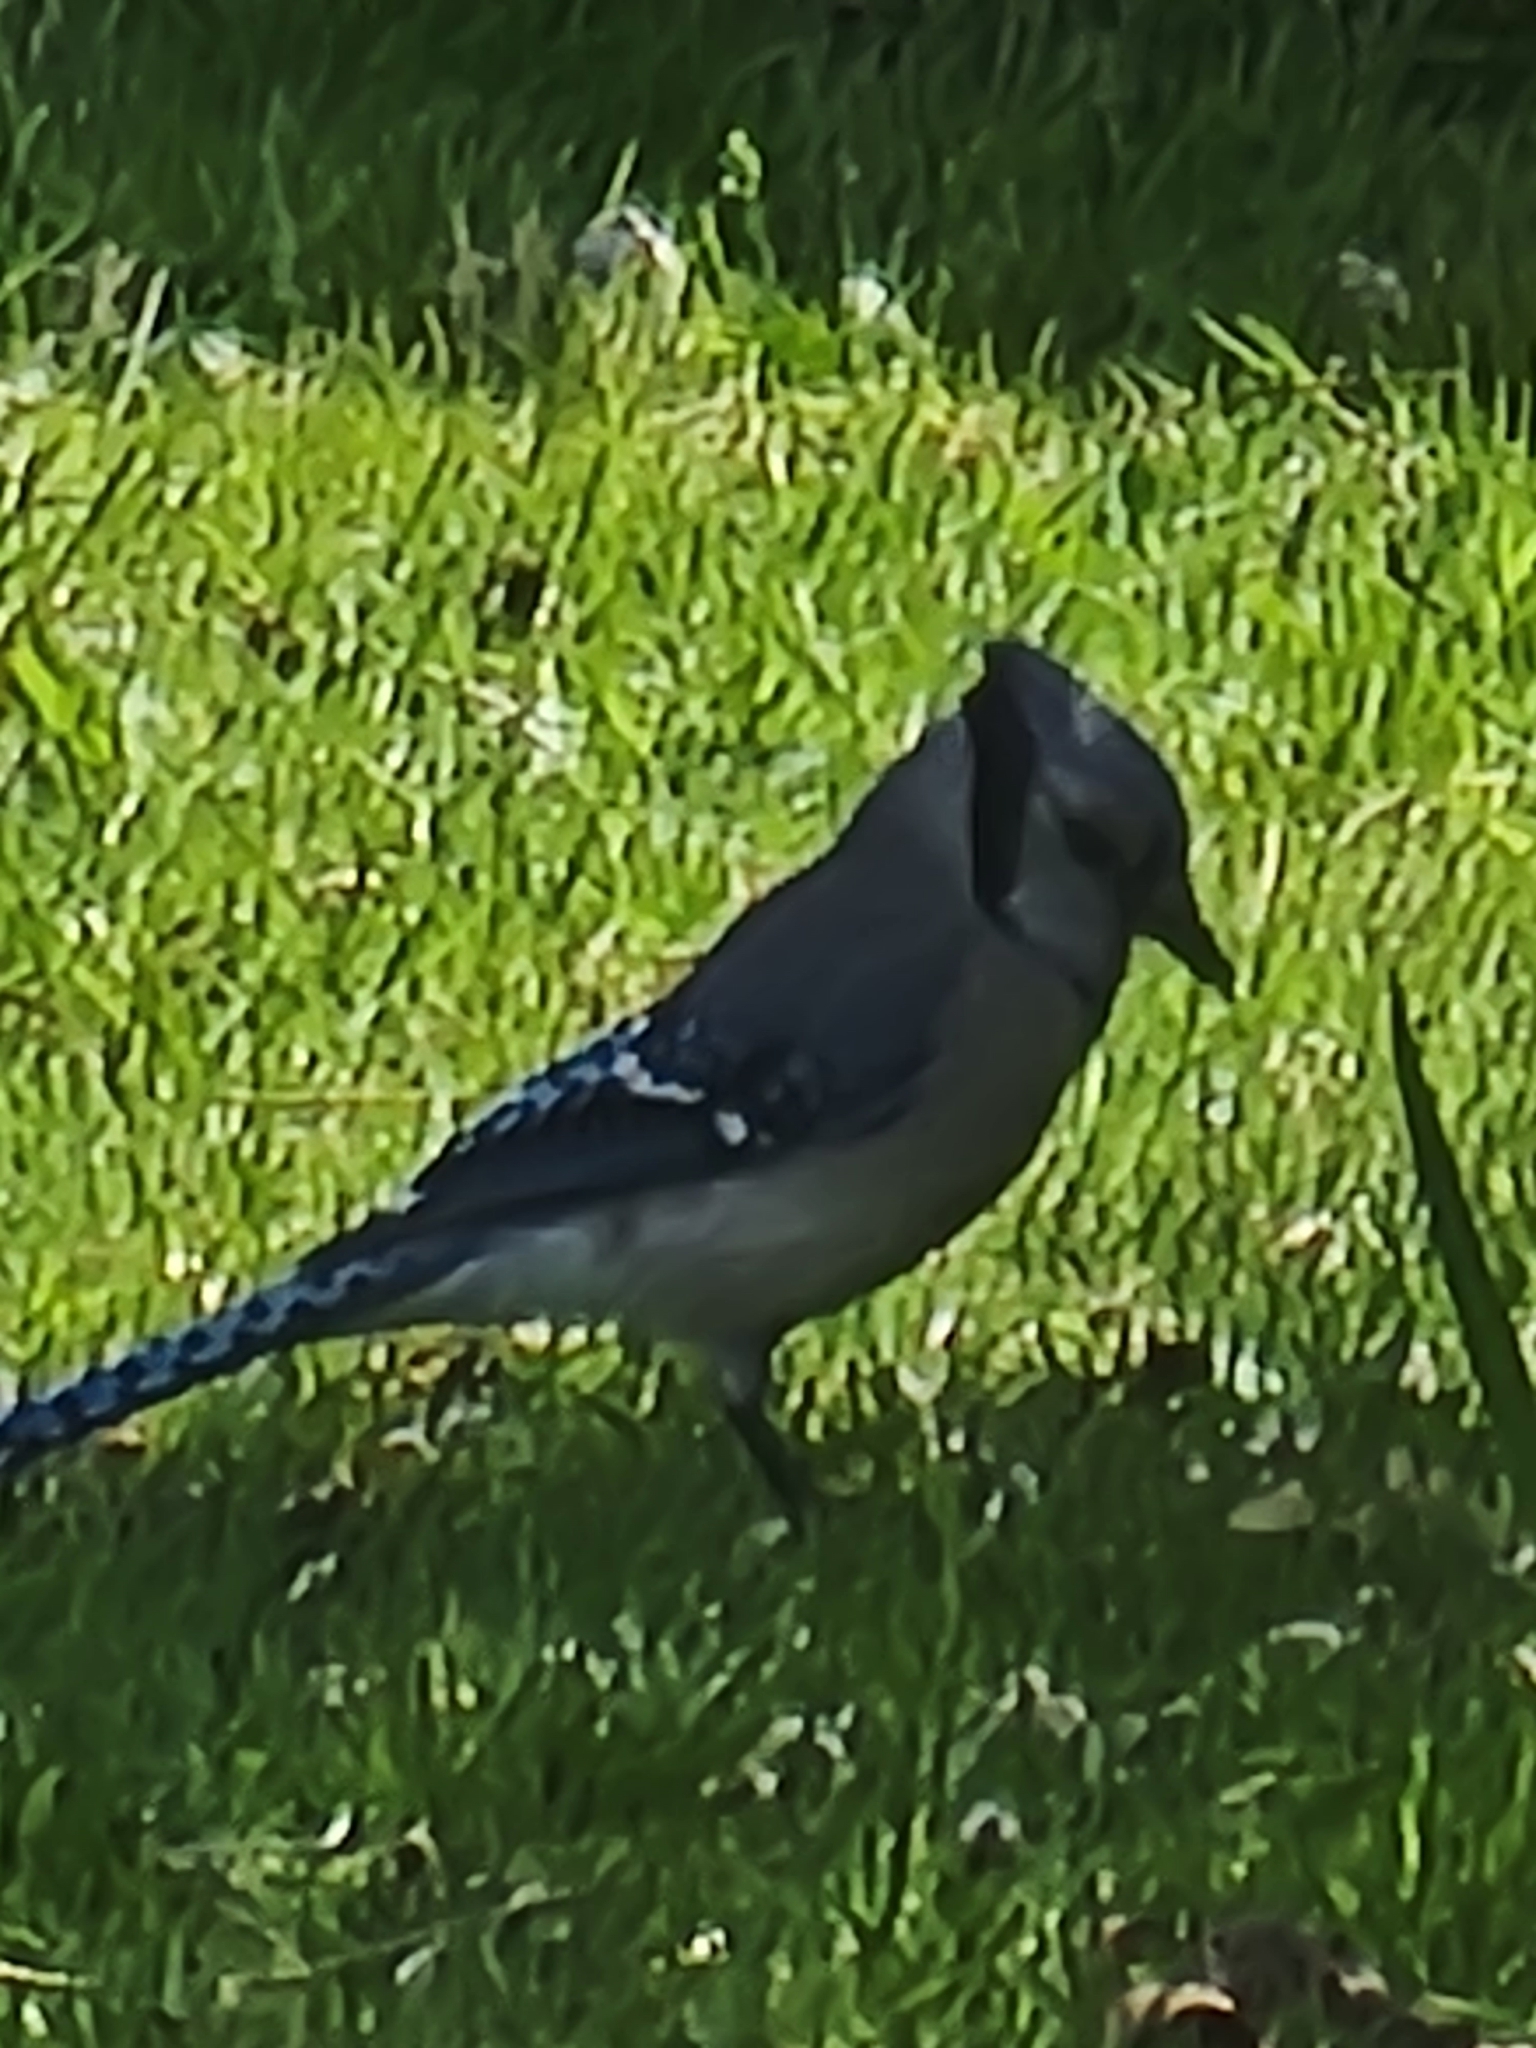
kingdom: Animalia
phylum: Chordata
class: Aves
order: Passeriformes
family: Corvidae
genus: Cyanocitta
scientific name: Cyanocitta cristata
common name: Blue jay
